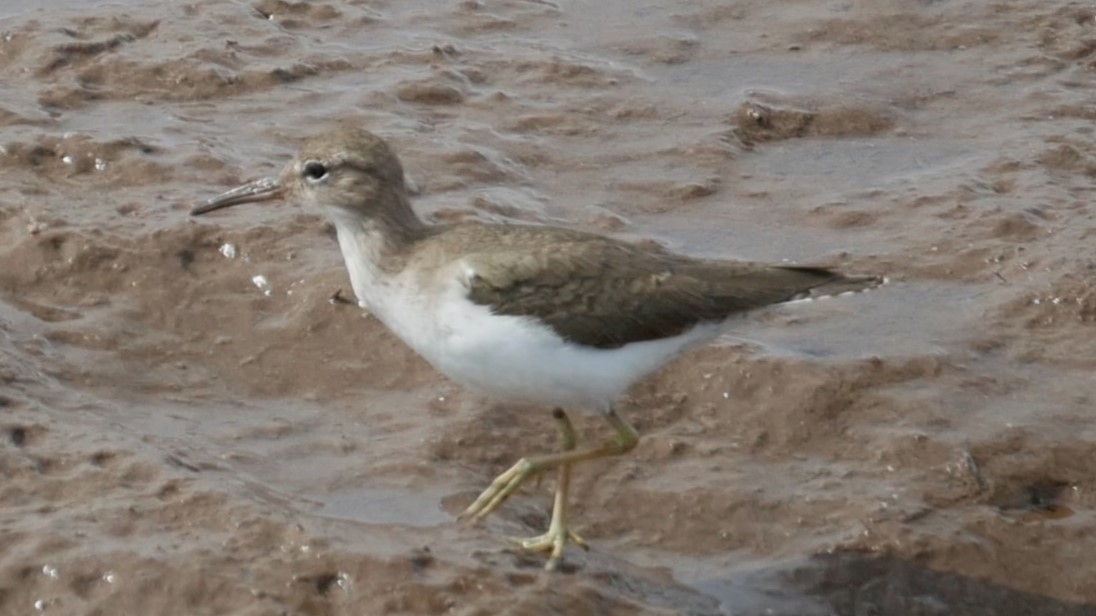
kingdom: Animalia
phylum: Chordata
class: Aves
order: Charadriiformes
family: Scolopacidae
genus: Actitis
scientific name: Actitis macularius
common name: Spotted sandpiper
